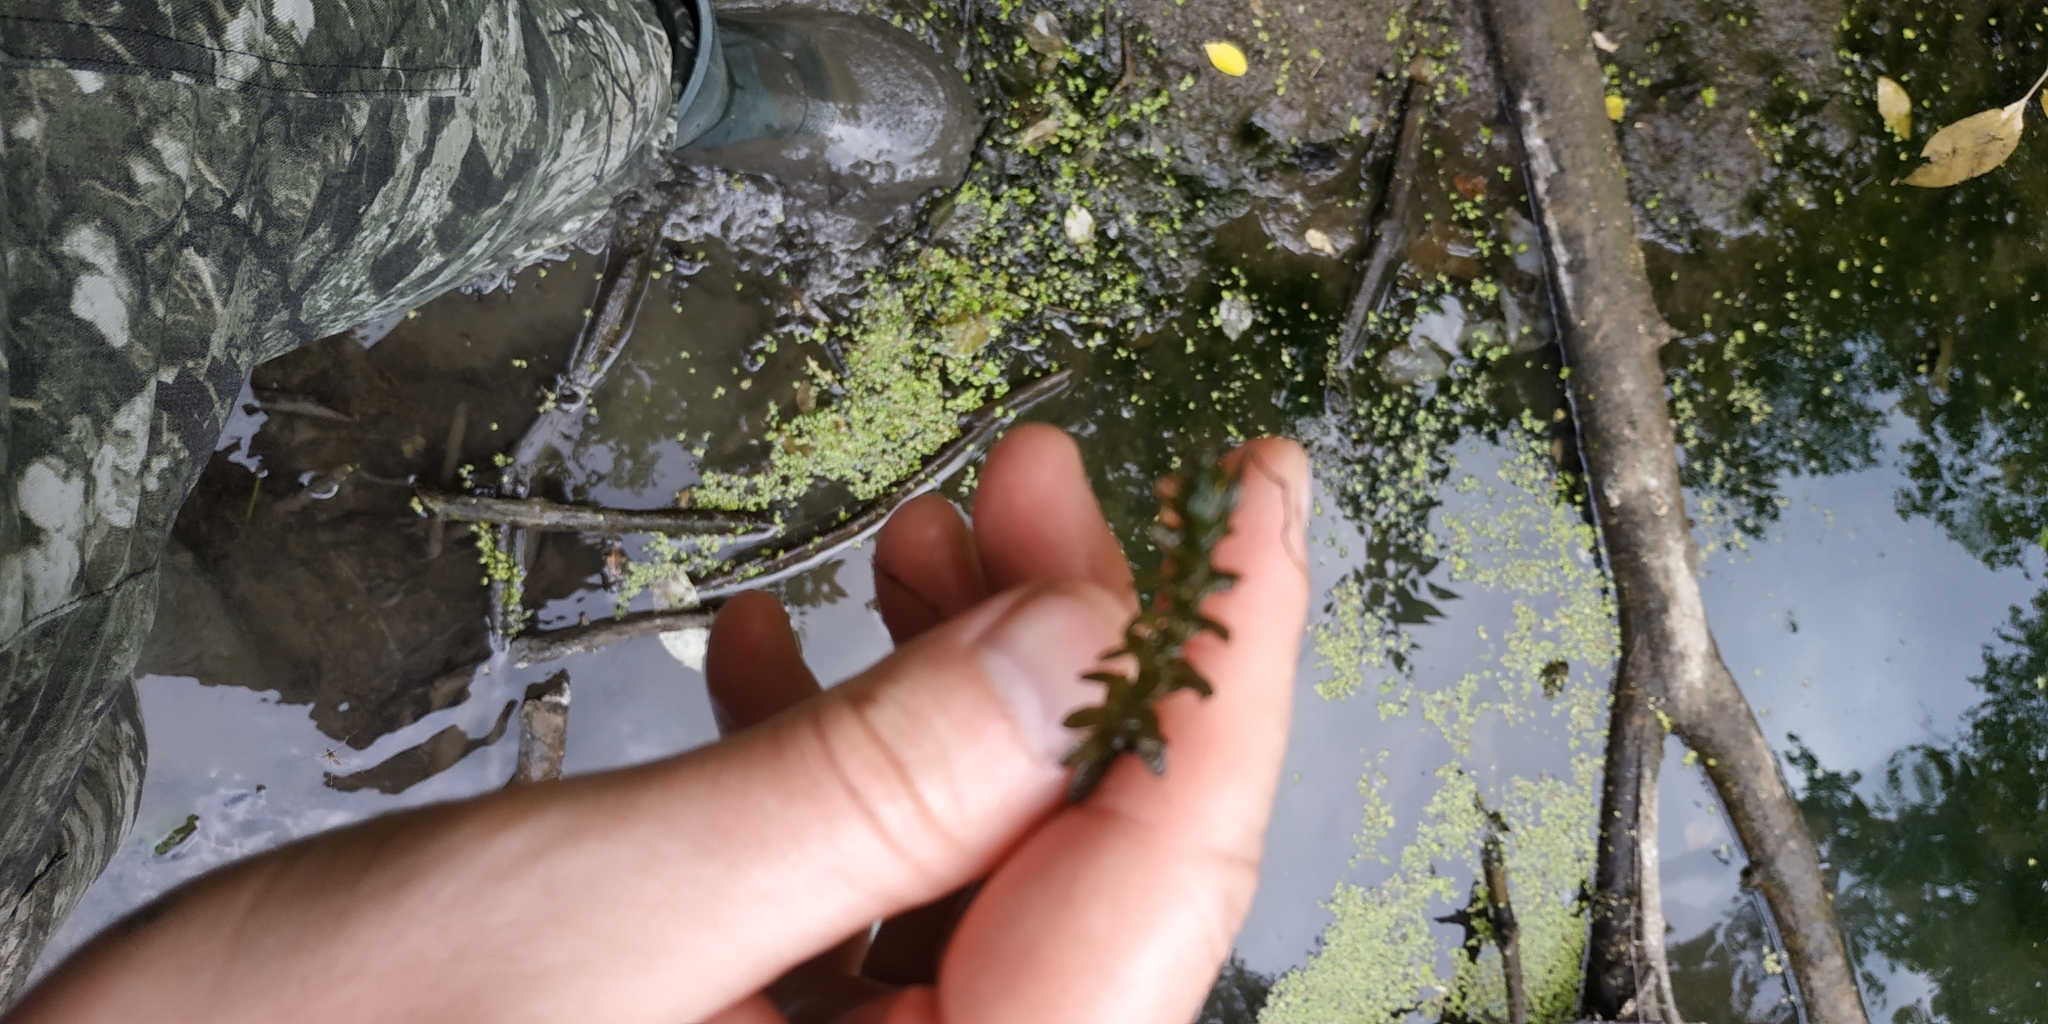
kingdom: Plantae
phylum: Tracheophyta
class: Liliopsida
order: Alismatales
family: Hydrocharitaceae
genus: Elodea
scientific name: Elodea canadensis
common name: Canadian waterweed
